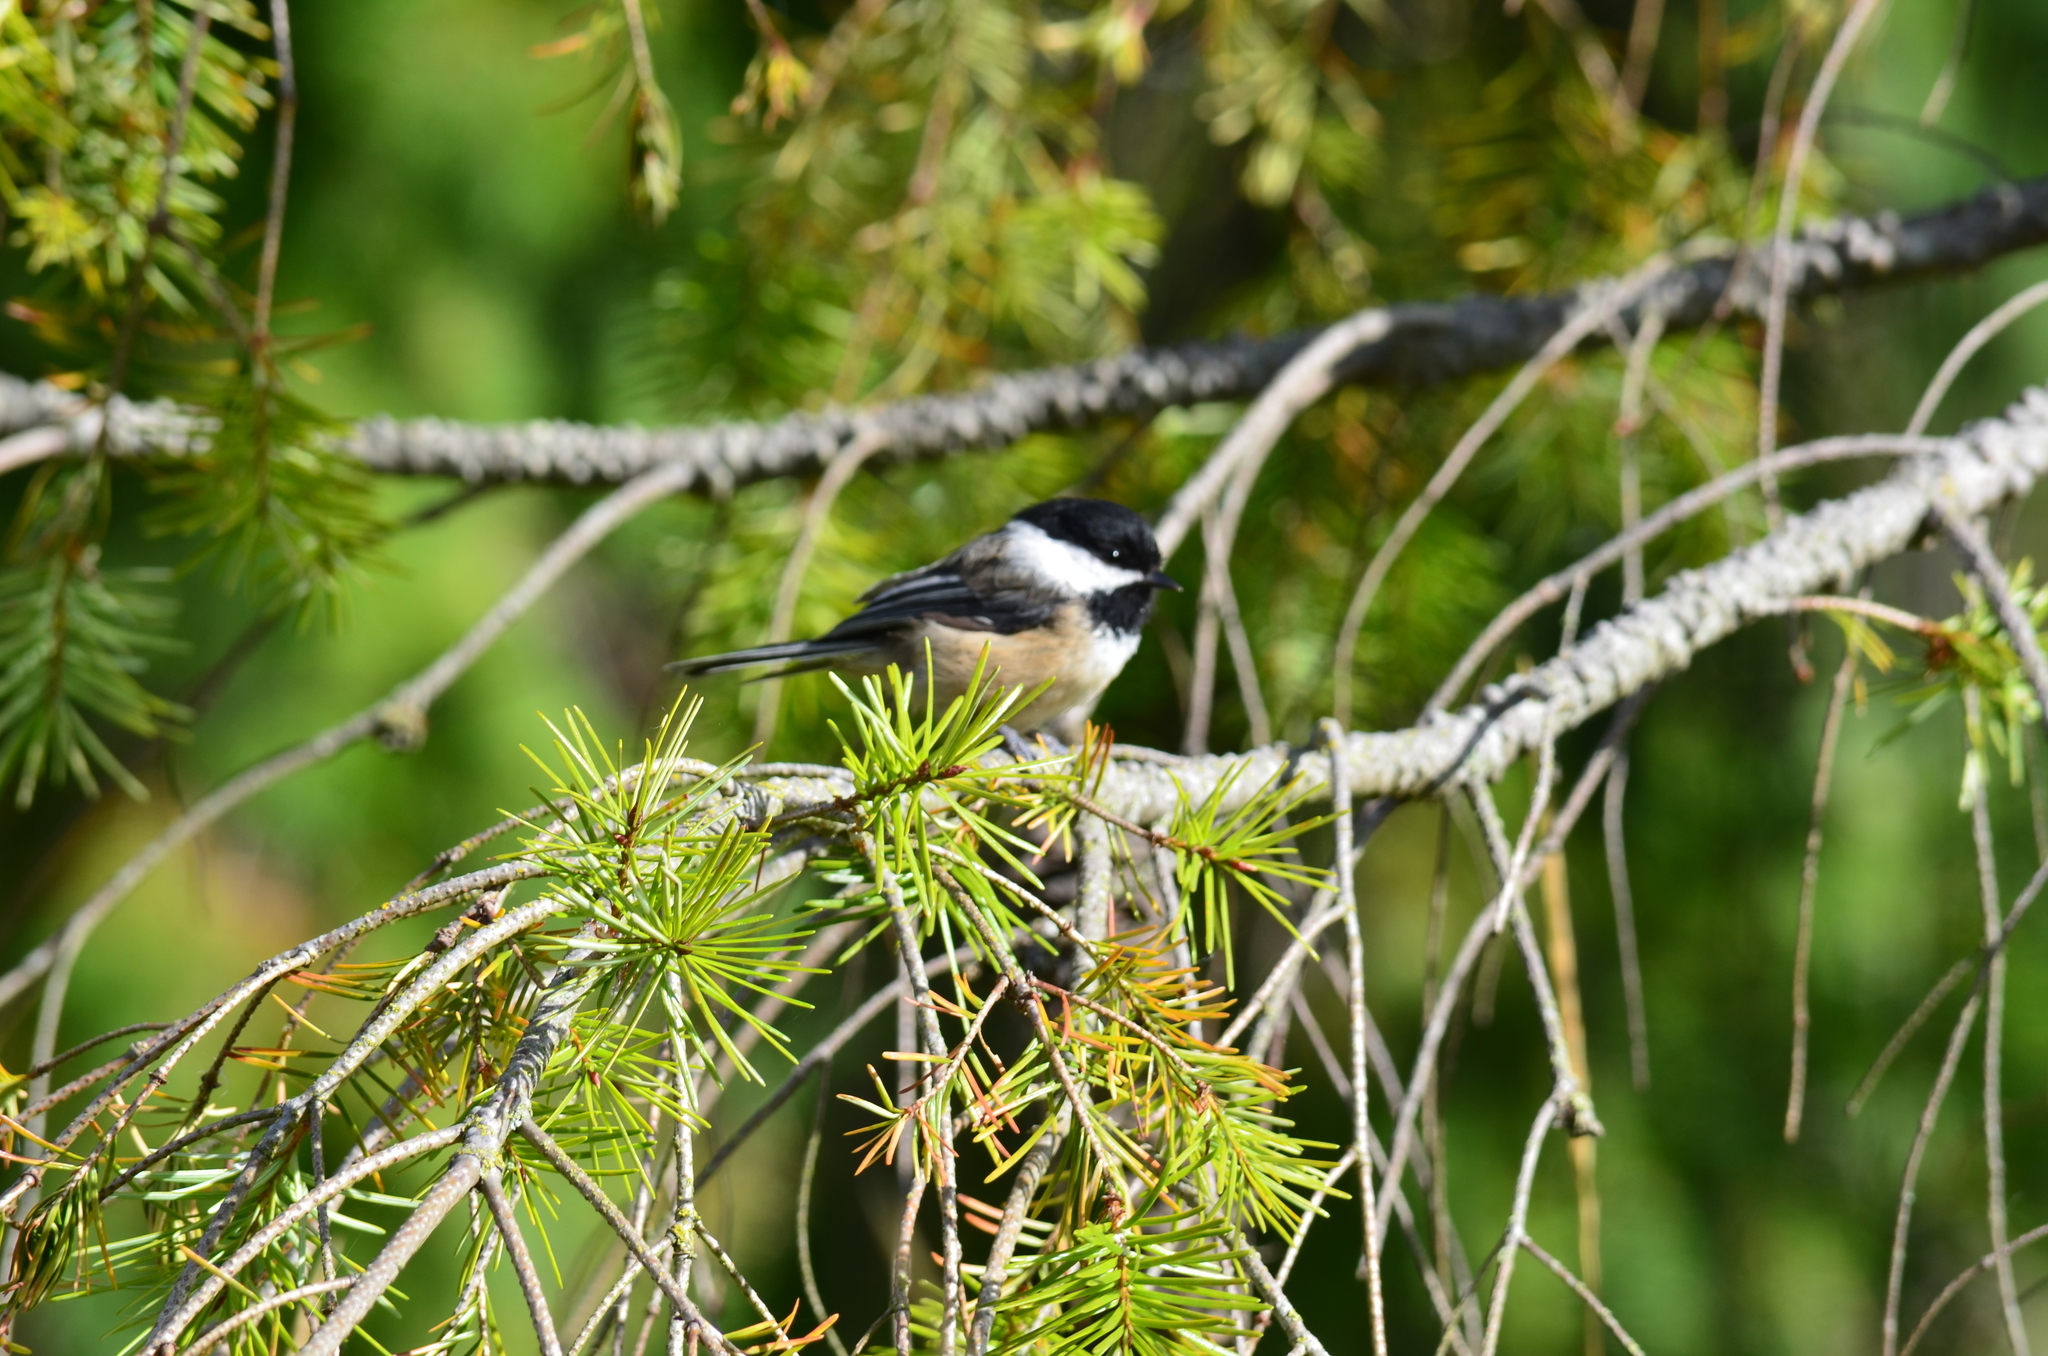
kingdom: Animalia
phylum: Chordata
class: Aves
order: Passeriformes
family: Paridae
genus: Poecile
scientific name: Poecile atricapillus
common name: Black-capped chickadee
